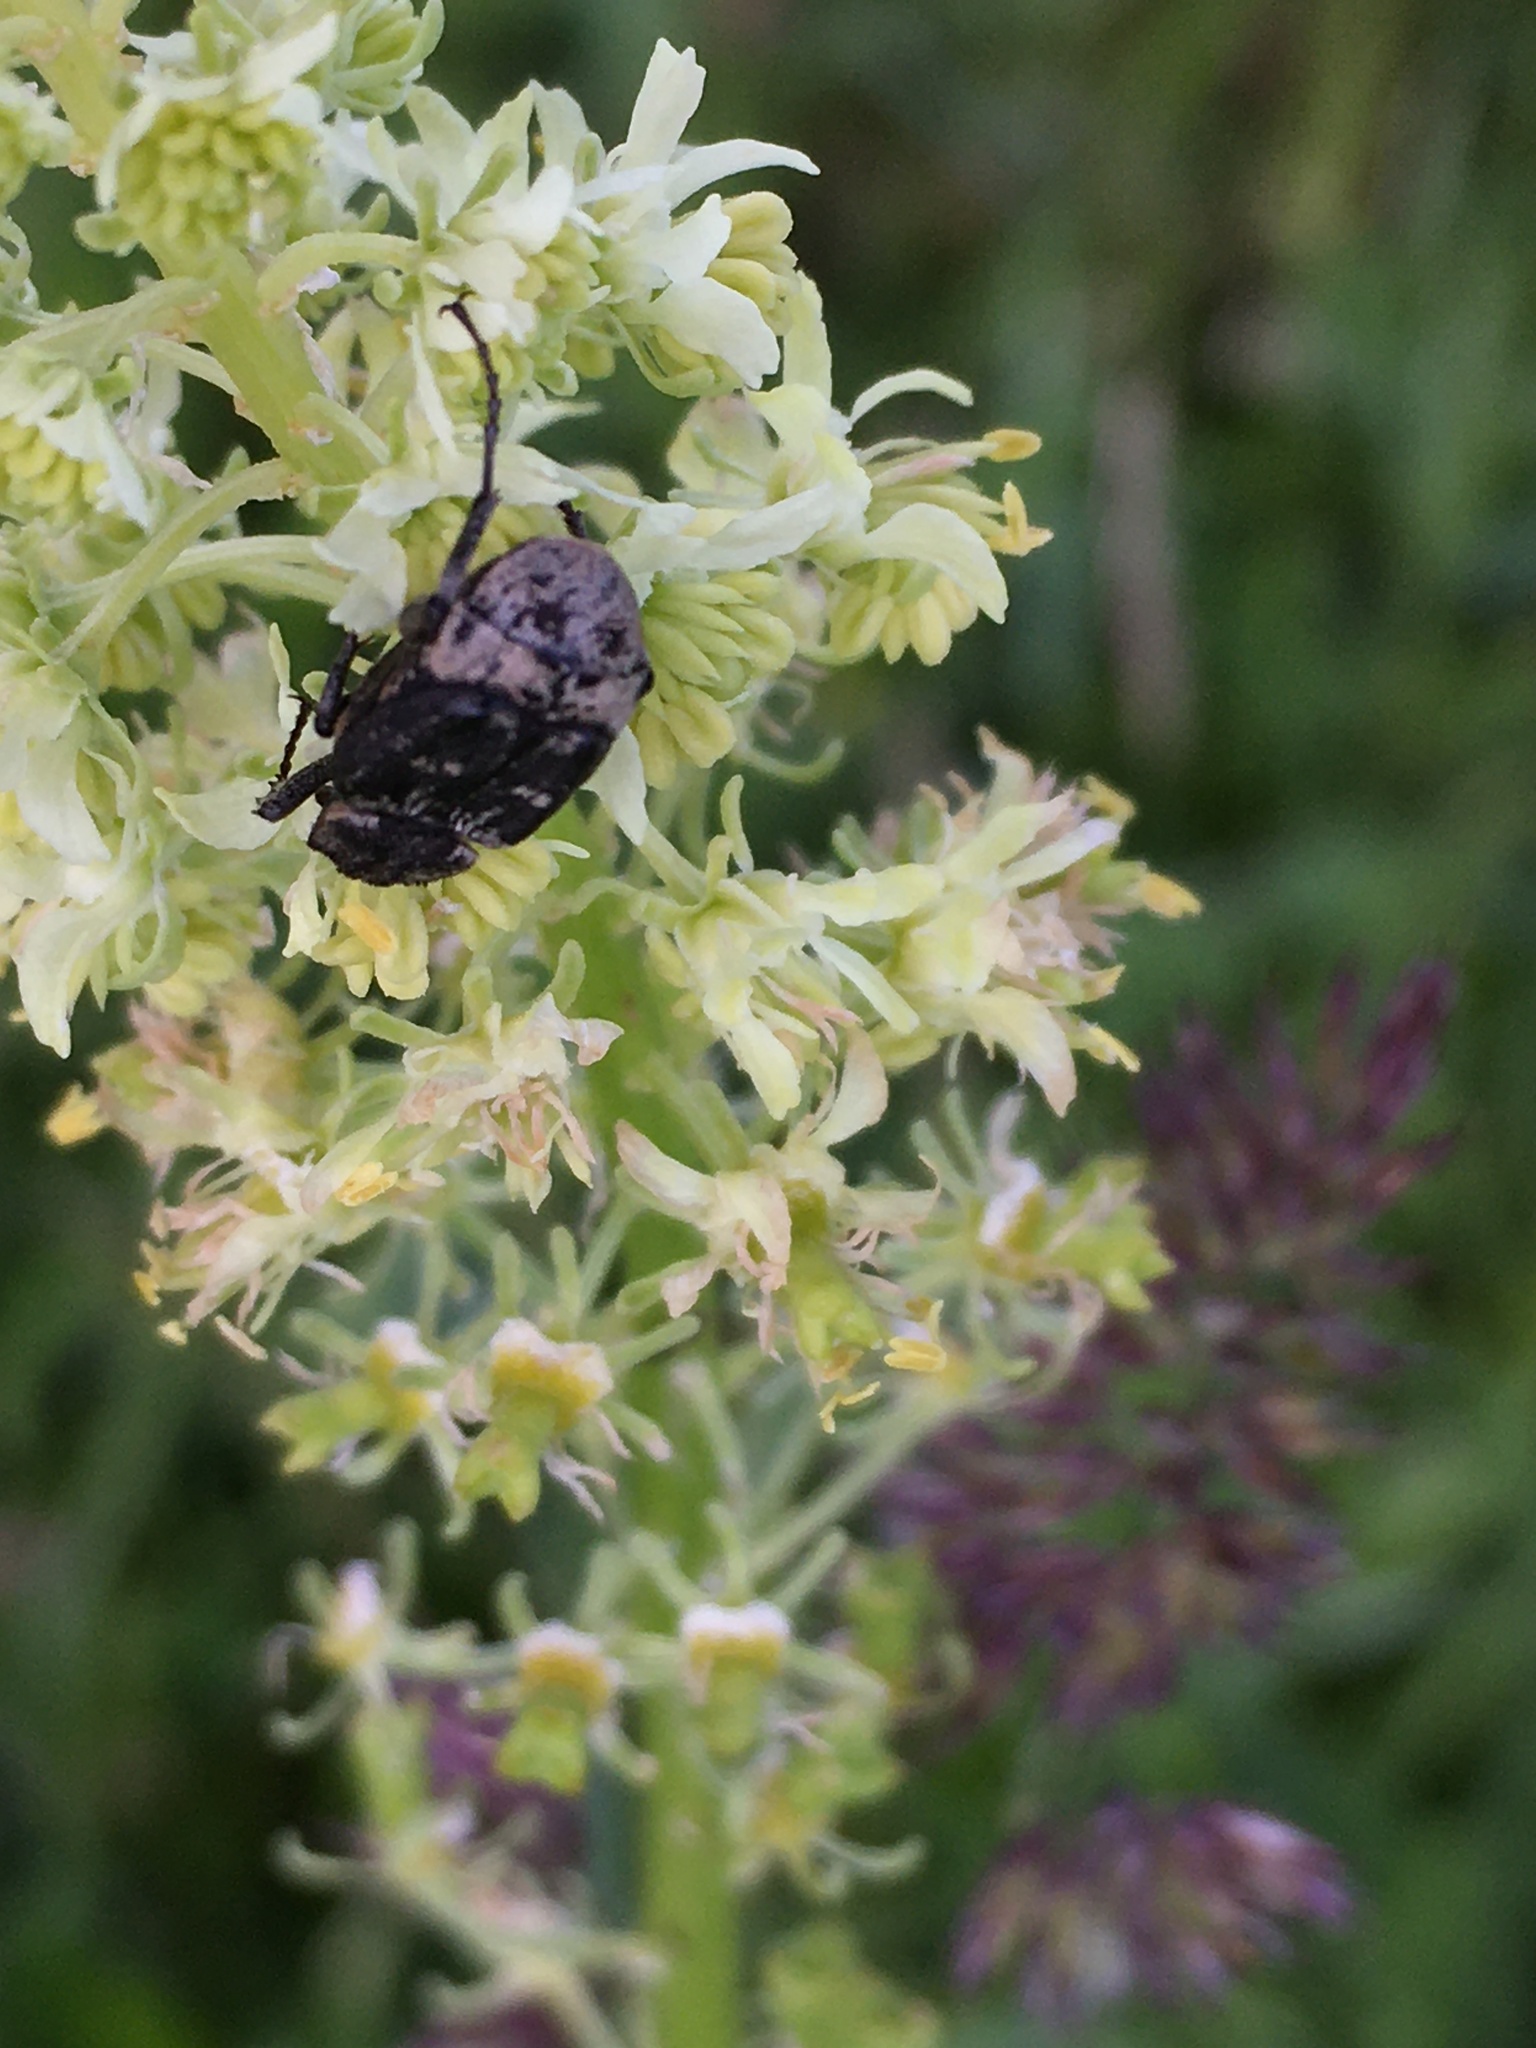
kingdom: Animalia
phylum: Arthropoda
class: Insecta
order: Coleoptera
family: Scarabaeidae
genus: Valgus
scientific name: Valgus hemipterus
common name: Bug flower chafer
